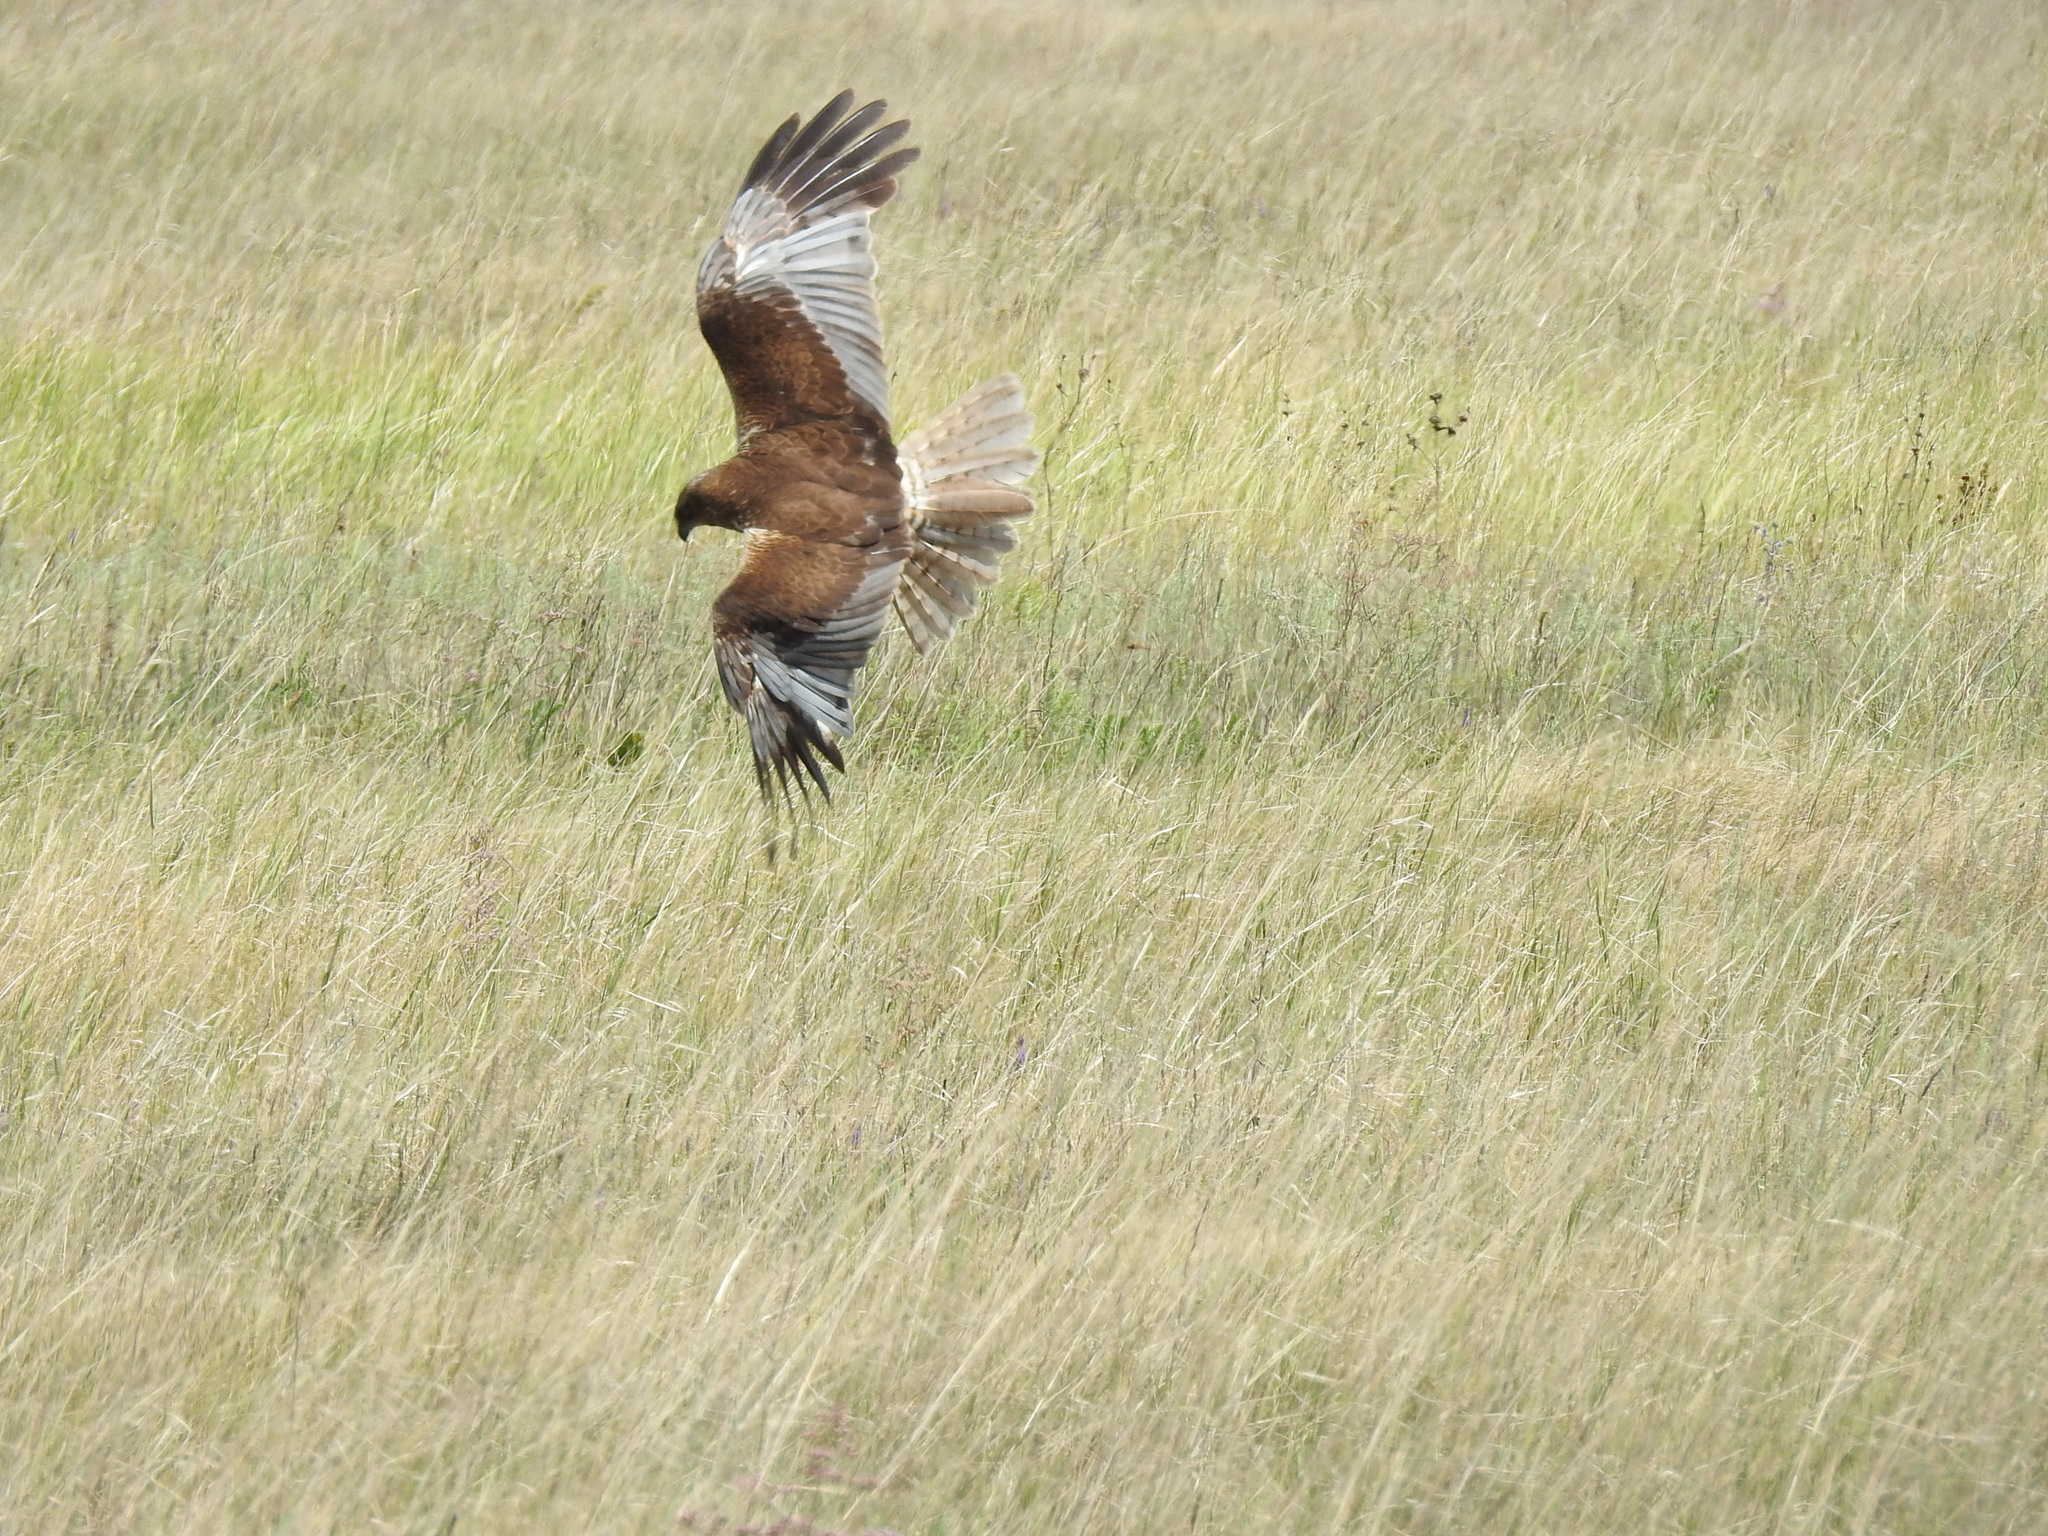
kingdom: Animalia
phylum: Chordata
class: Aves
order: Accipitriformes
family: Accipitridae
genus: Circus
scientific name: Circus aeruginosus
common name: Western marsh harrier
